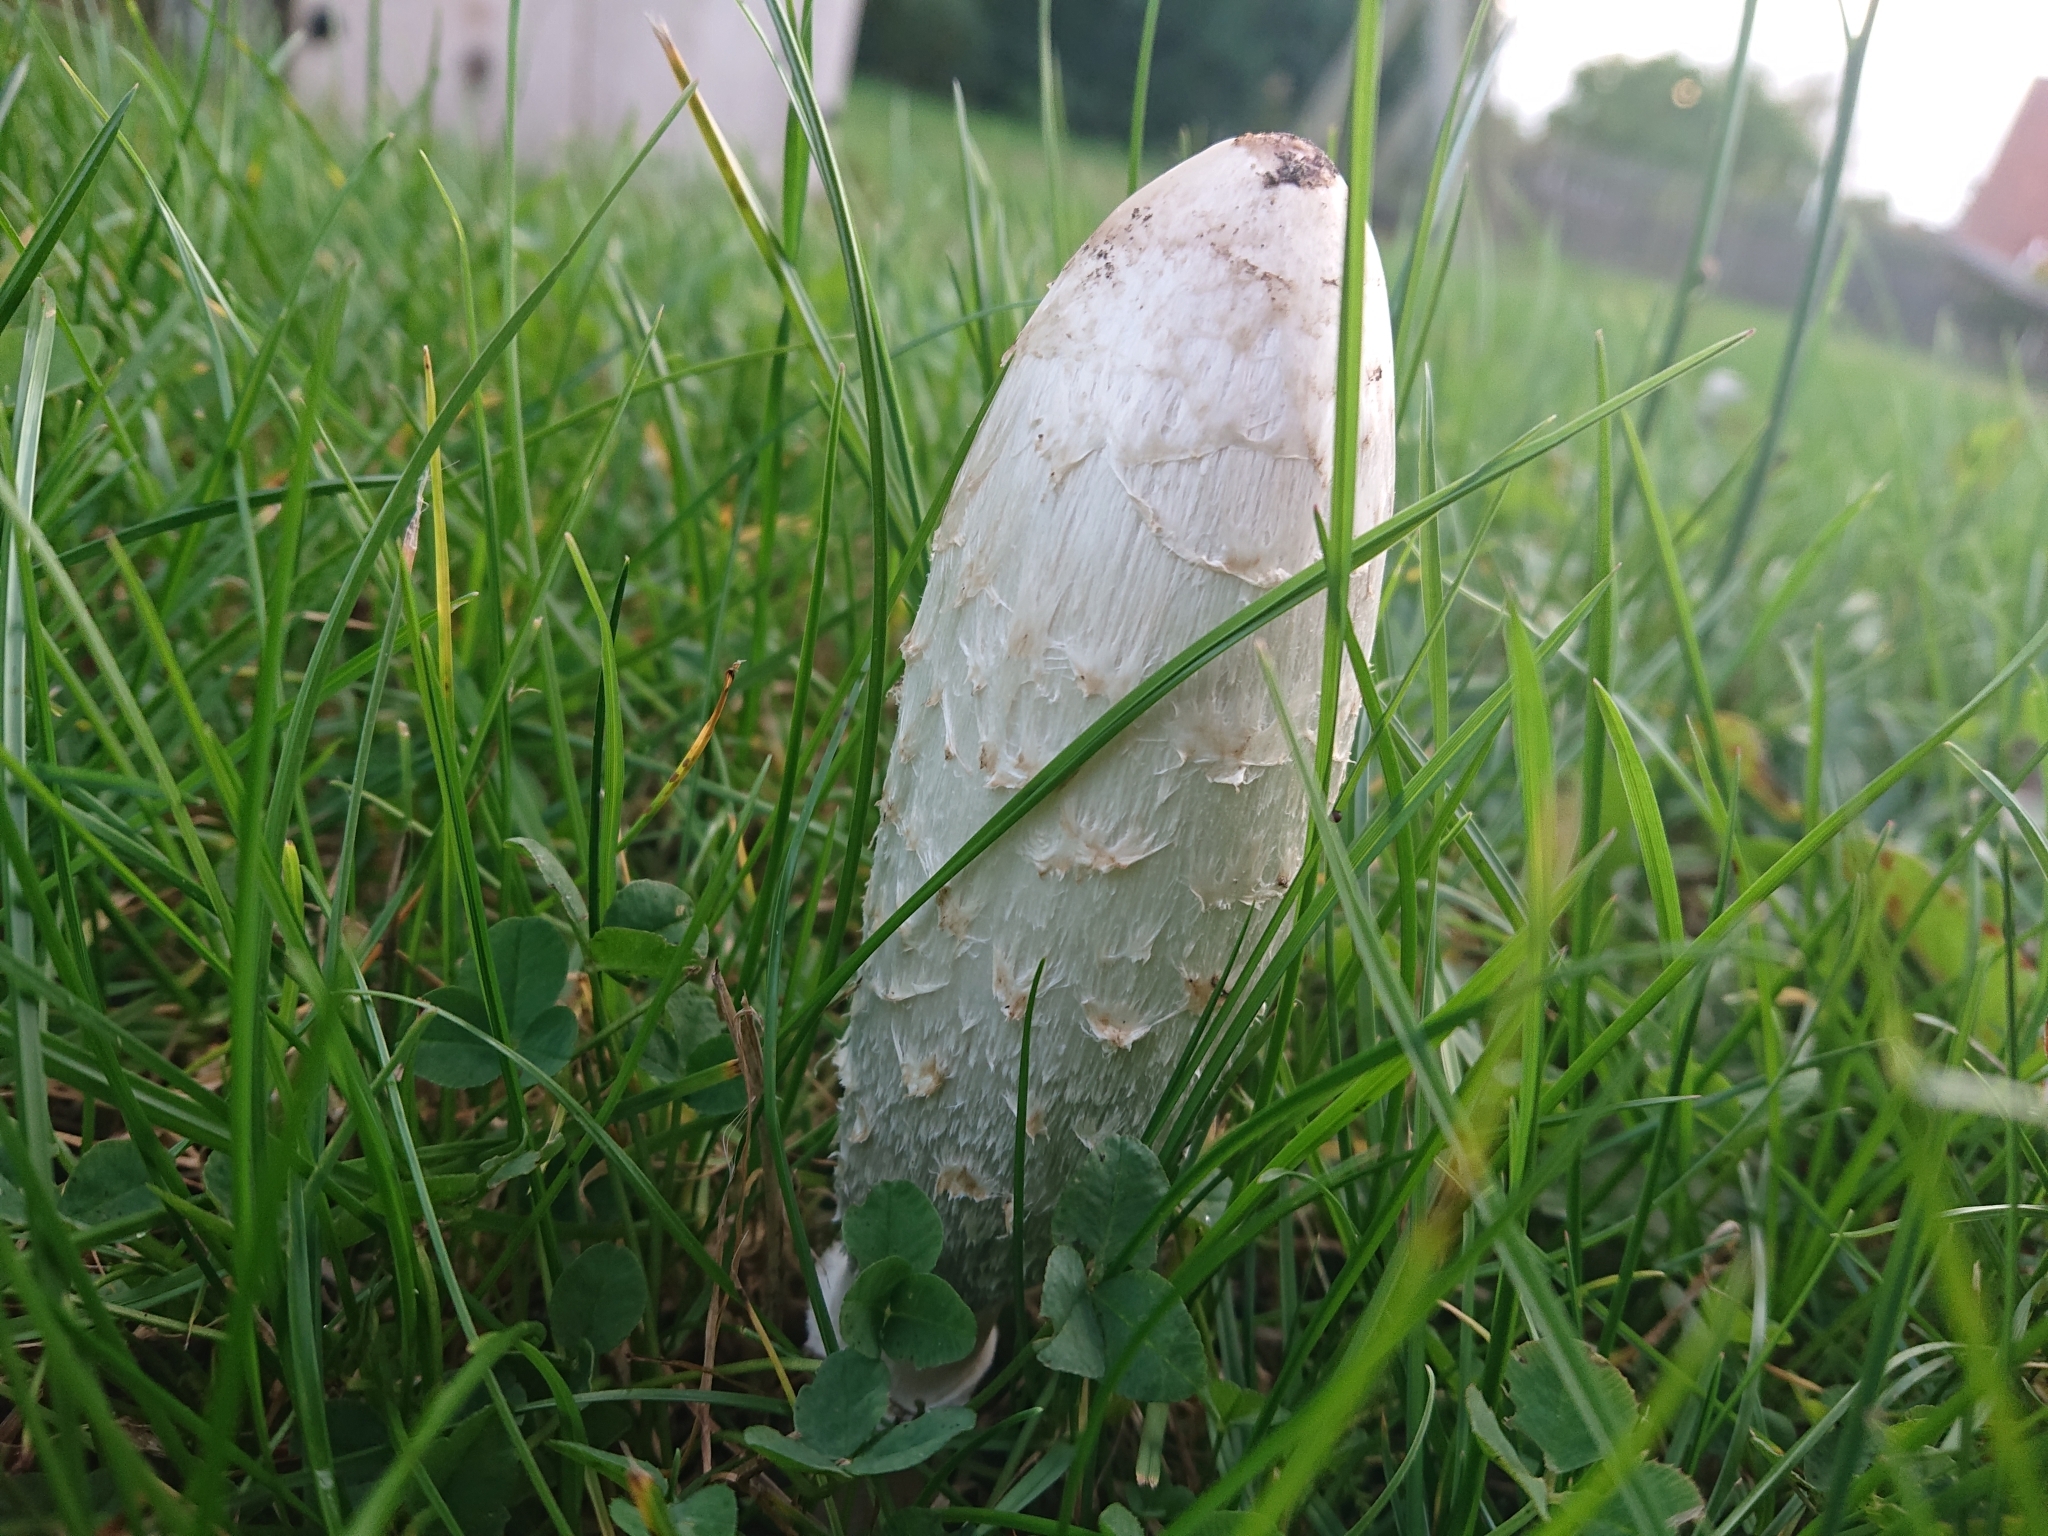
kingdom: Fungi
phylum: Basidiomycota
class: Agaricomycetes
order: Agaricales
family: Agaricaceae
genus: Coprinus
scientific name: Coprinus comatus
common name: Lawyer's wig
